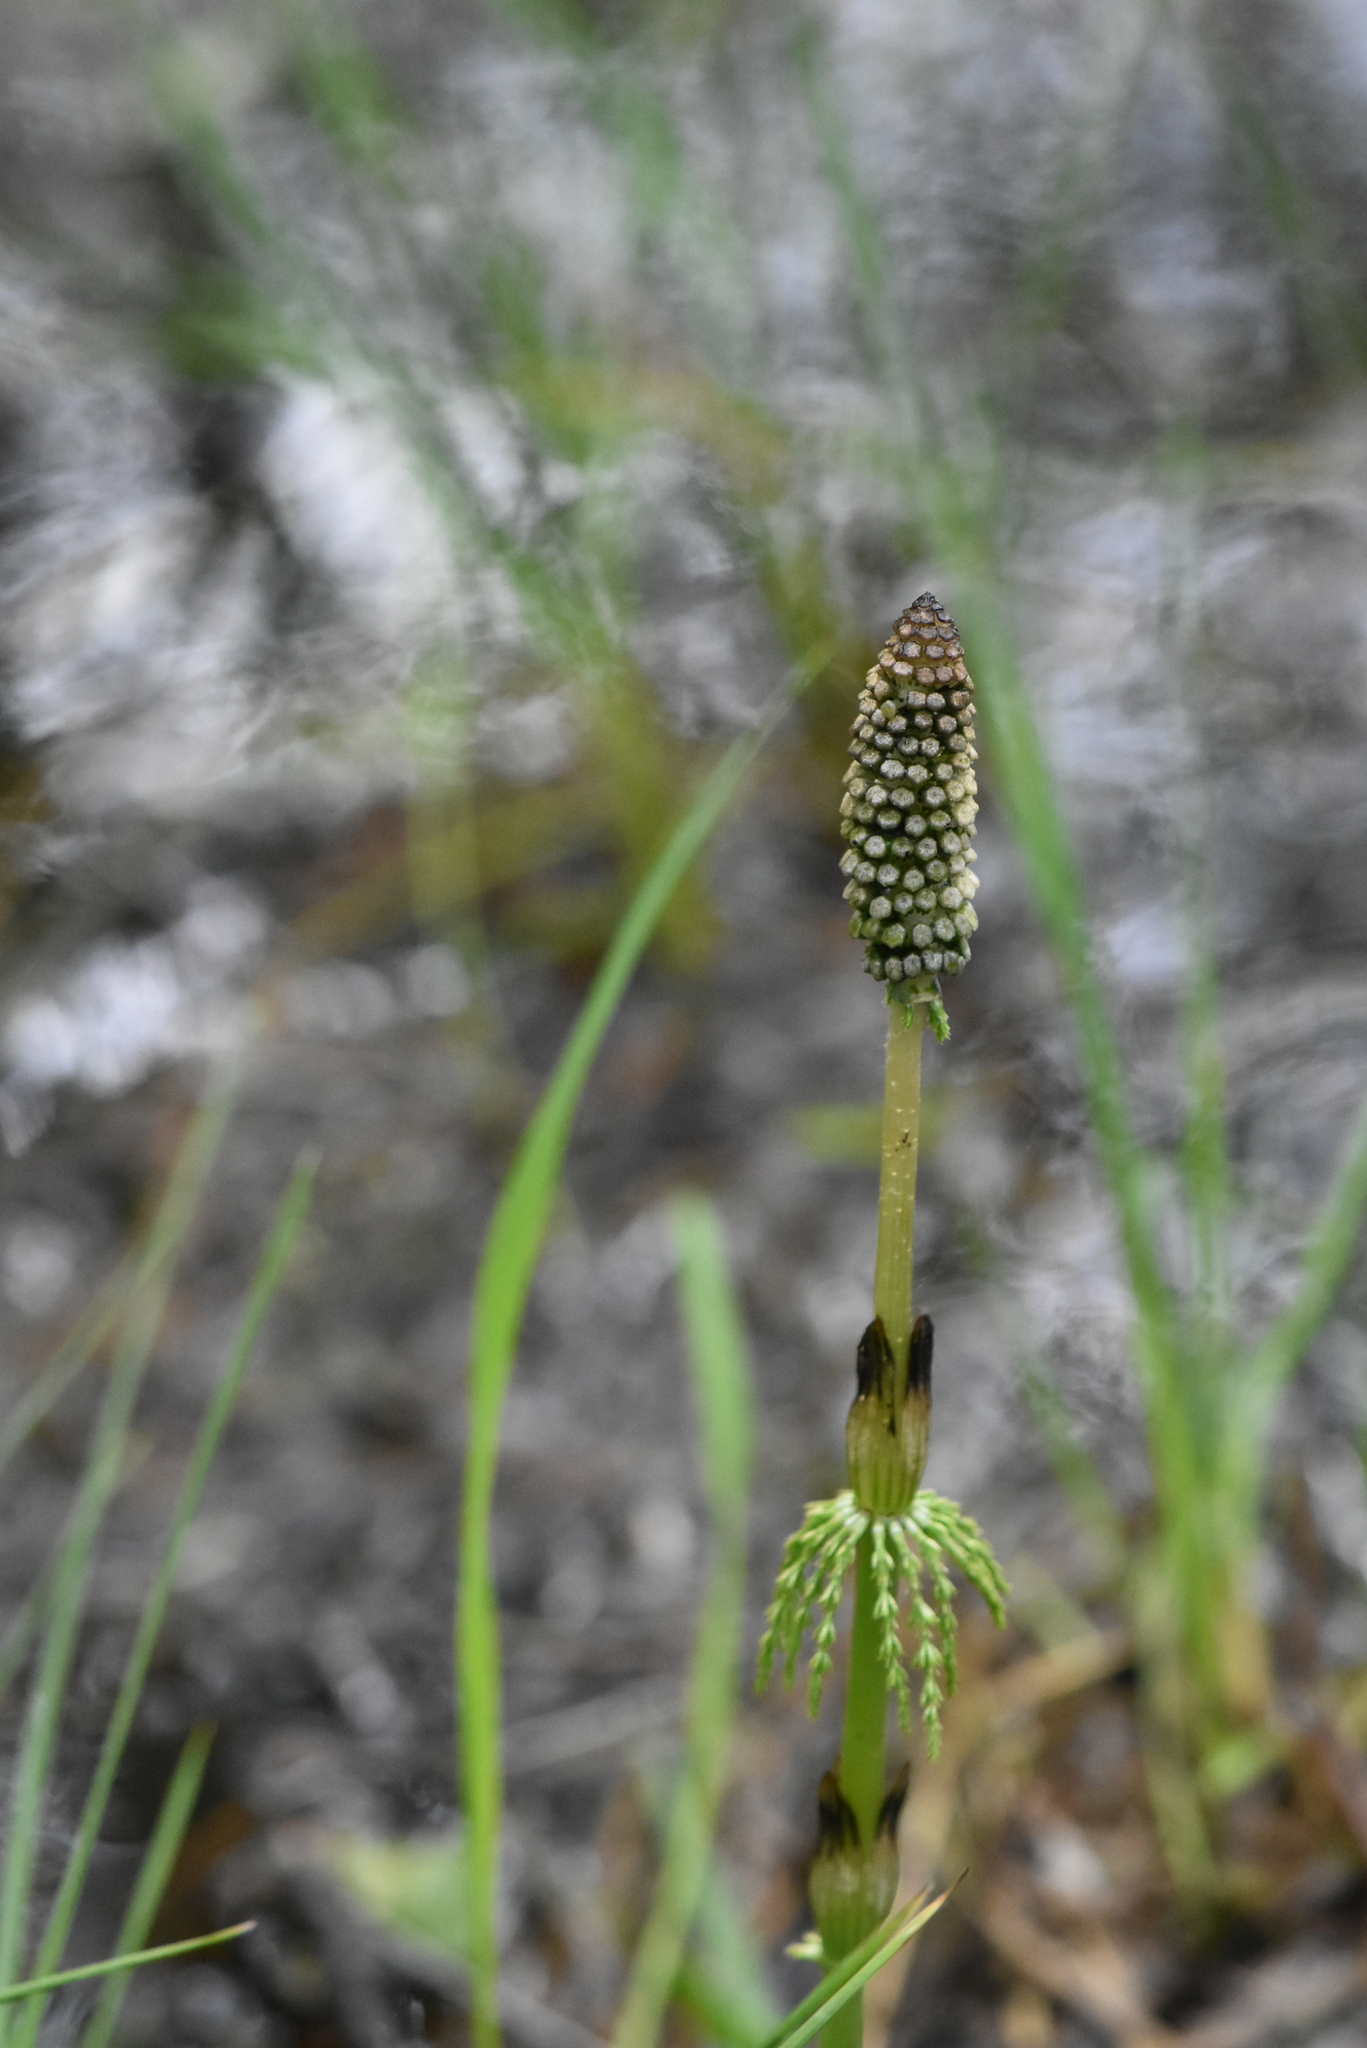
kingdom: Plantae
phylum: Tracheophyta
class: Polypodiopsida
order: Equisetales
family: Equisetaceae
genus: Equisetum
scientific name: Equisetum sylvaticum
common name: Wood horsetail
